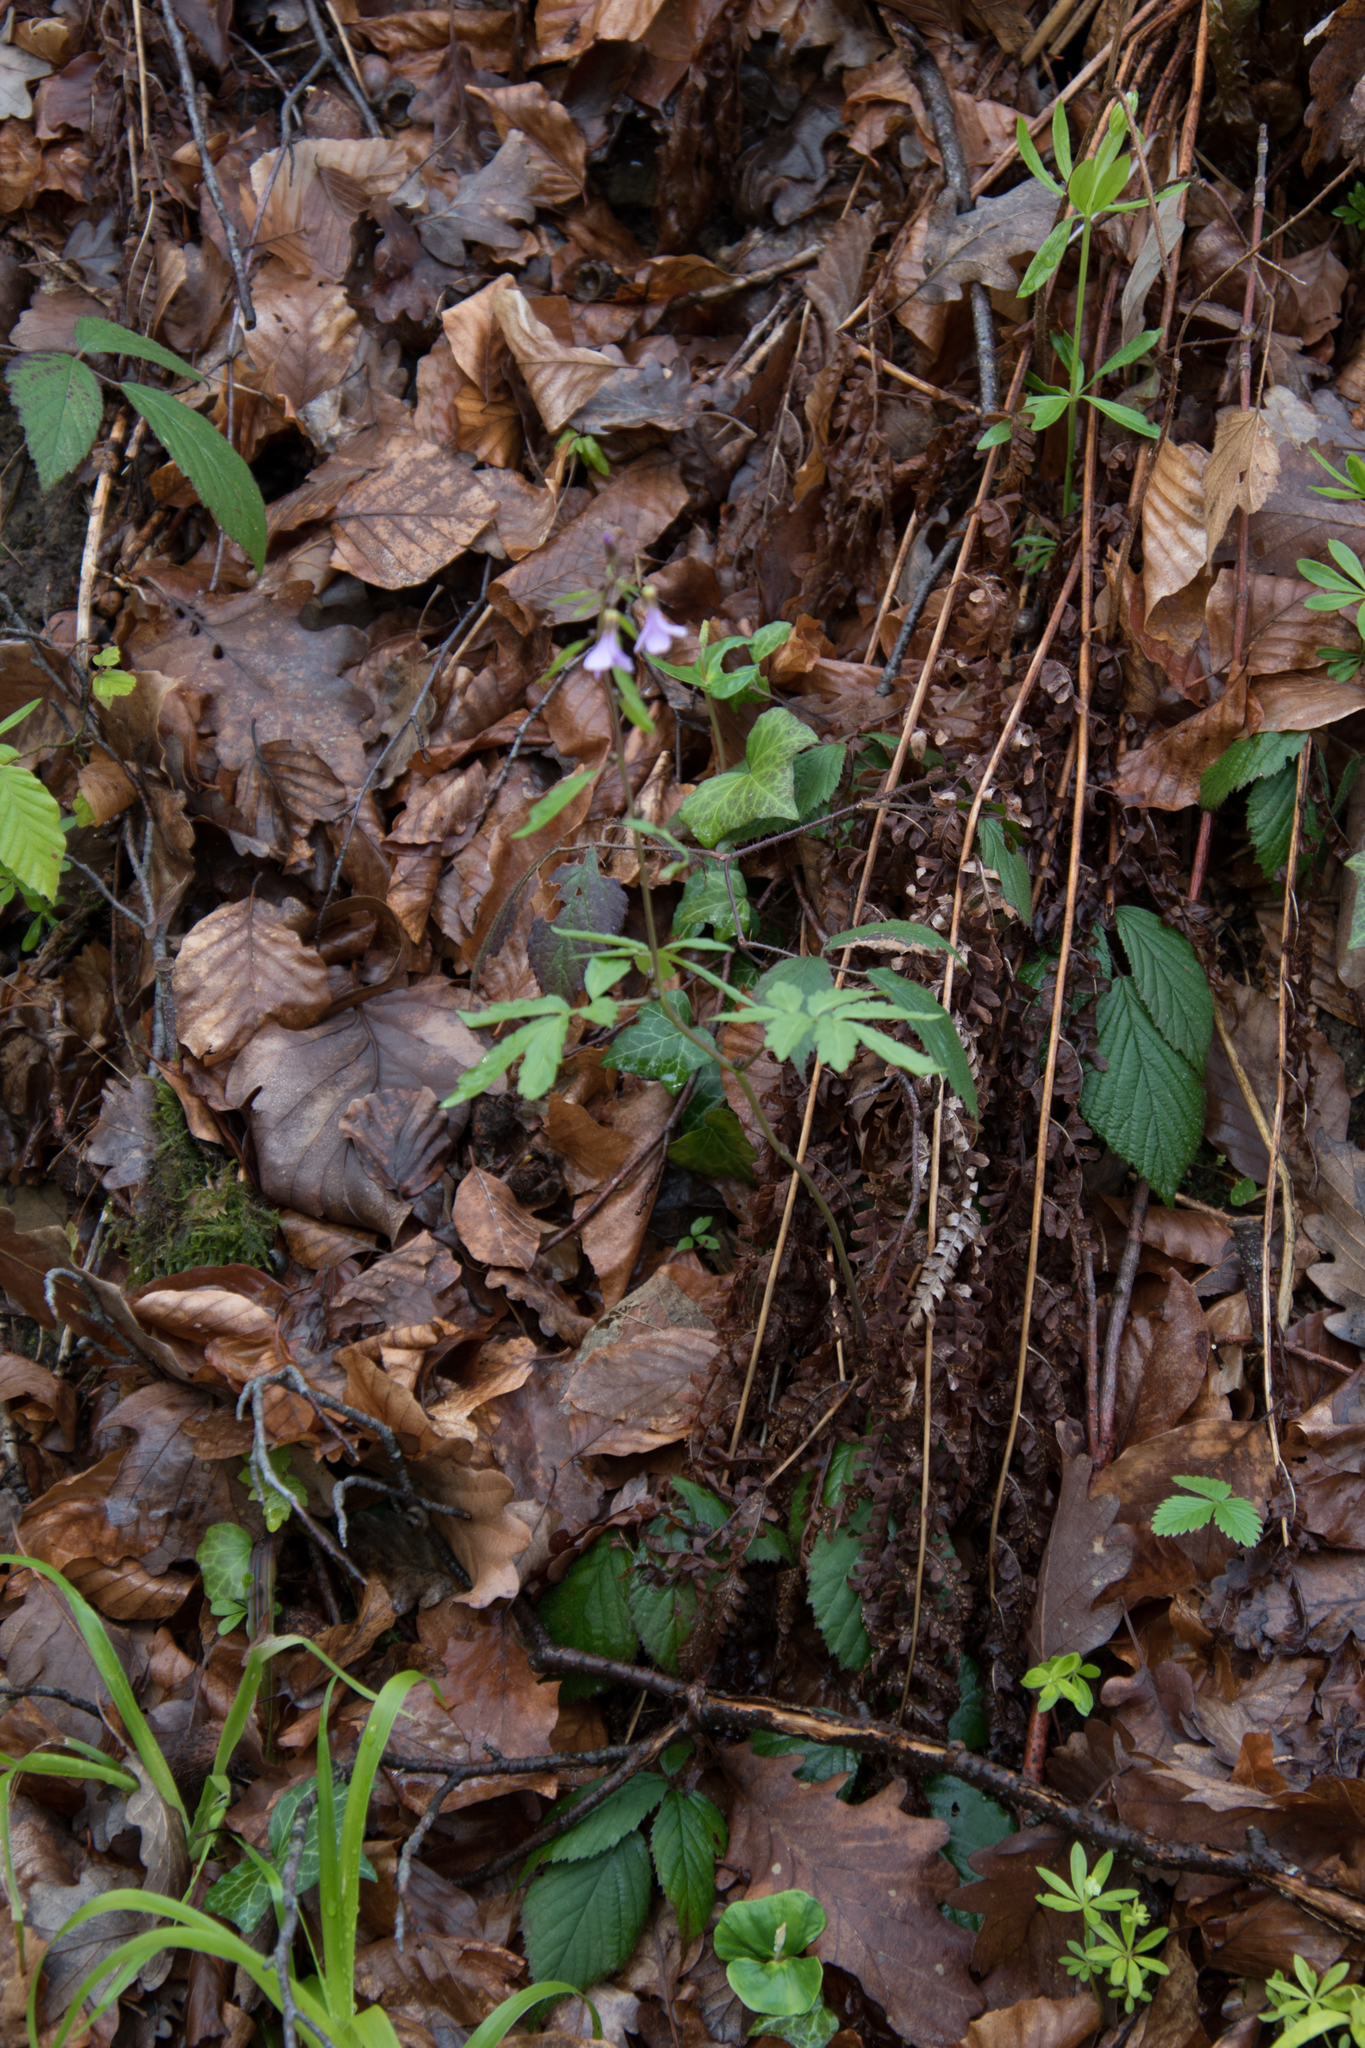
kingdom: Plantae
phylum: Tracheophyta
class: Magnoliopsida
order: Brassicales
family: Brassicaceae
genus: Cardamine
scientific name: Cardamine bulbifera
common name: Coralroot bittercress
